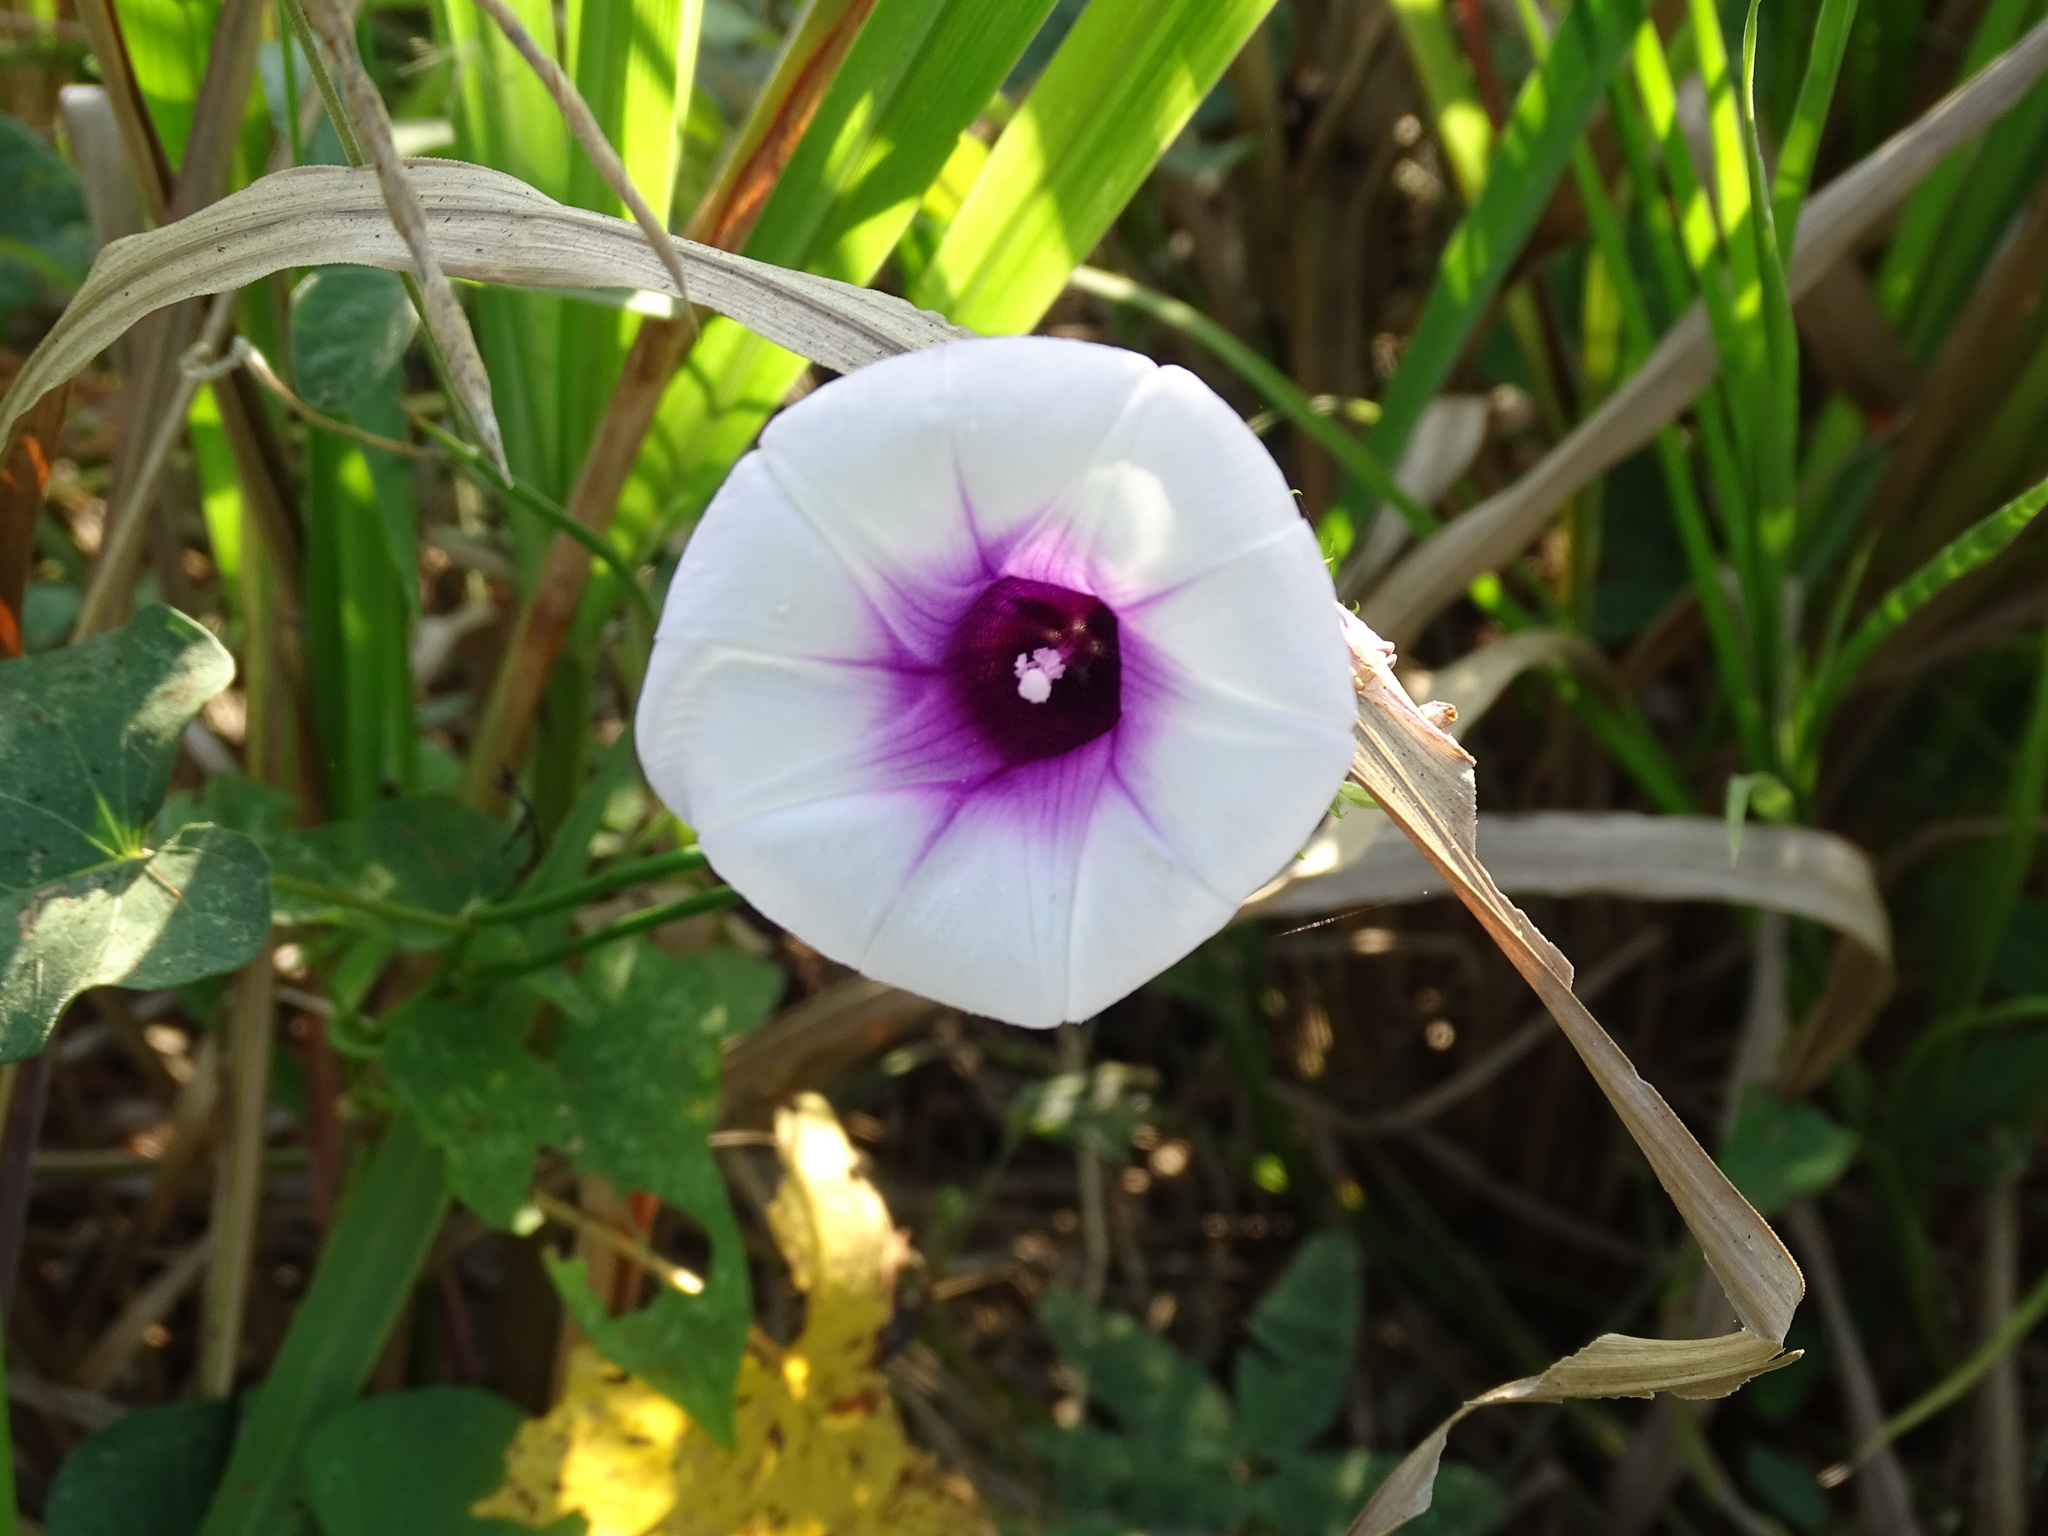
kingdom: Plantae
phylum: Tracheophyta
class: Magnoliopsida
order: Solanales
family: Convolvulaceae
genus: Ipomoea
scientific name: Ipomoea batatas
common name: Sweet-potato
